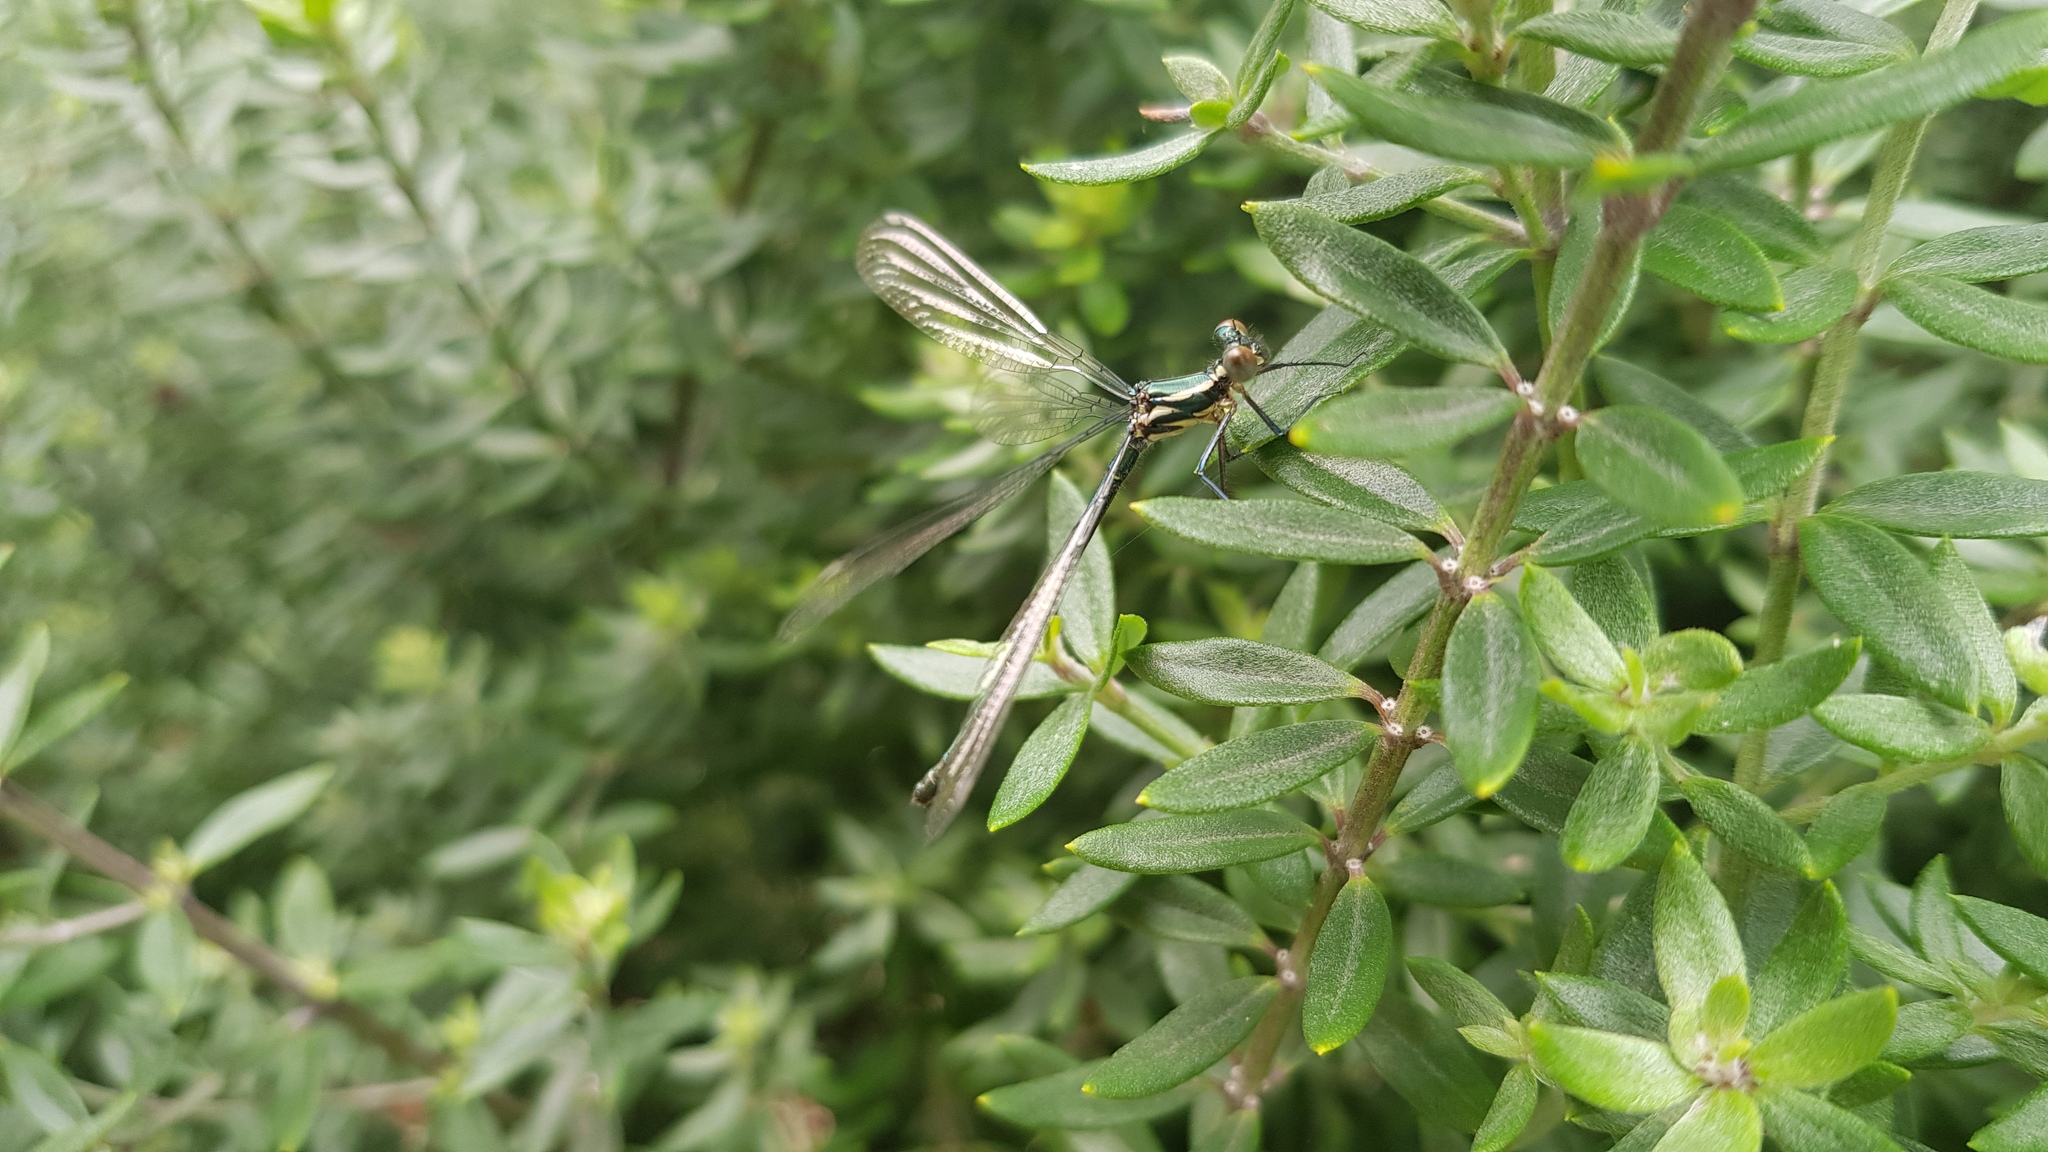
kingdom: Animalia
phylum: Arthropoda
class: Insecta
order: Odonata
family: Argiolestidae
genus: Austroargiolestes
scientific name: Austroargiolestes icteromelas
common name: Common flatwing
